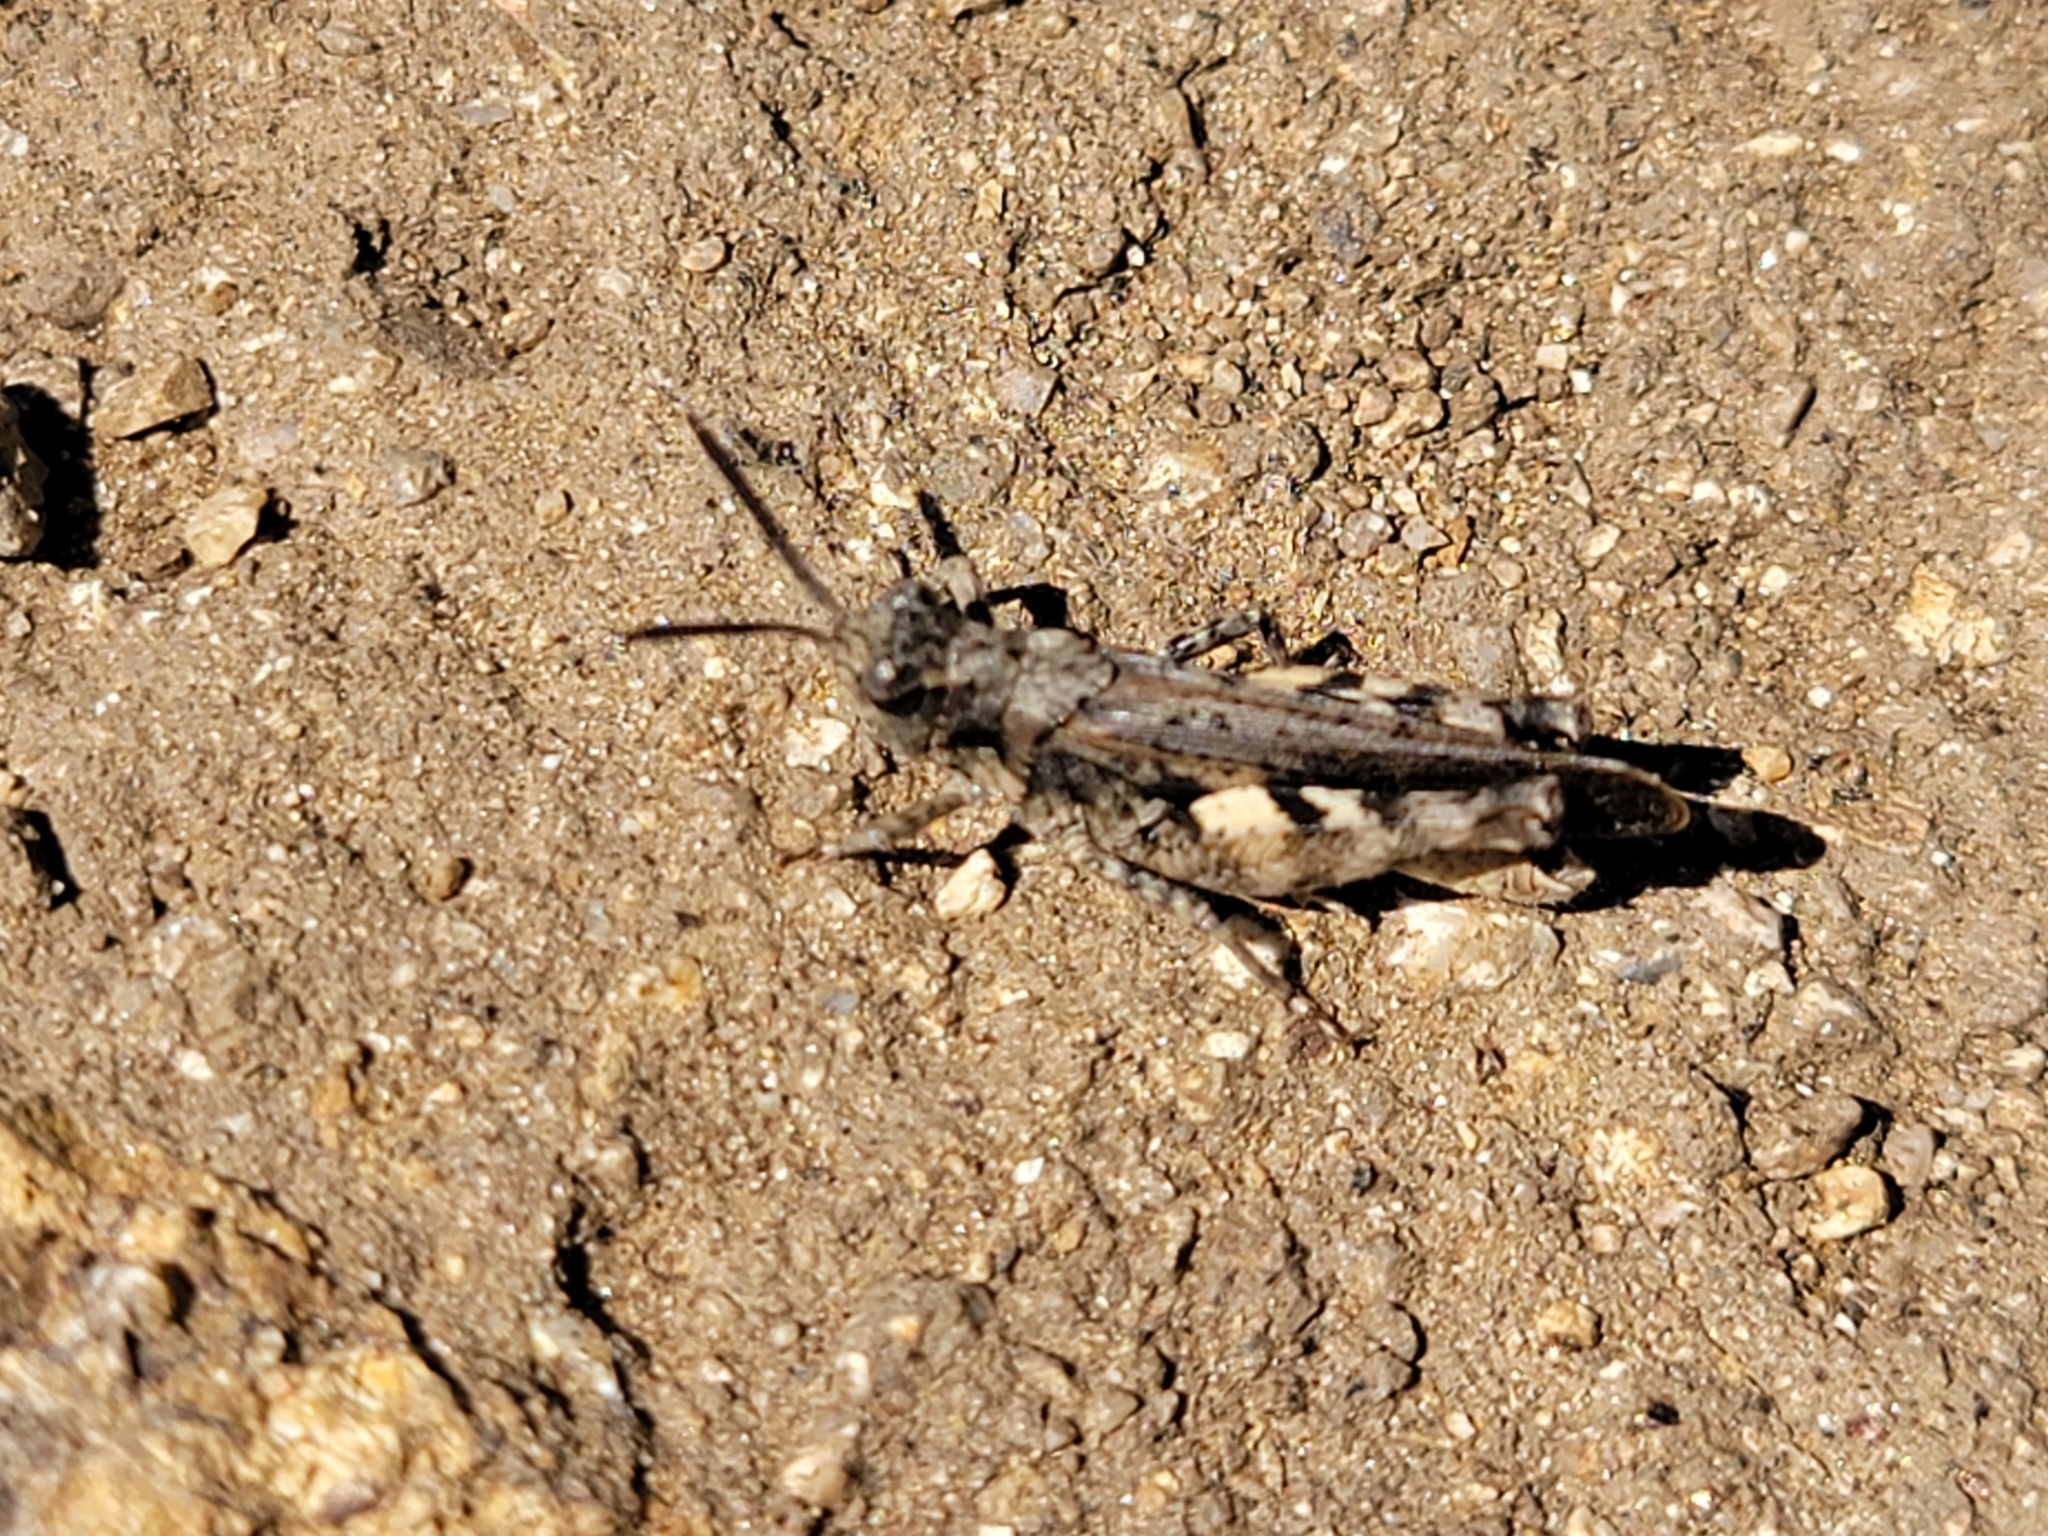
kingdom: Animalia
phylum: Arthropoda
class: Insecta
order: Orthoptera
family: Acrididae
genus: Chimarocephala
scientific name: Chimarocephala pacifica
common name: Painted meadow grasshopper
